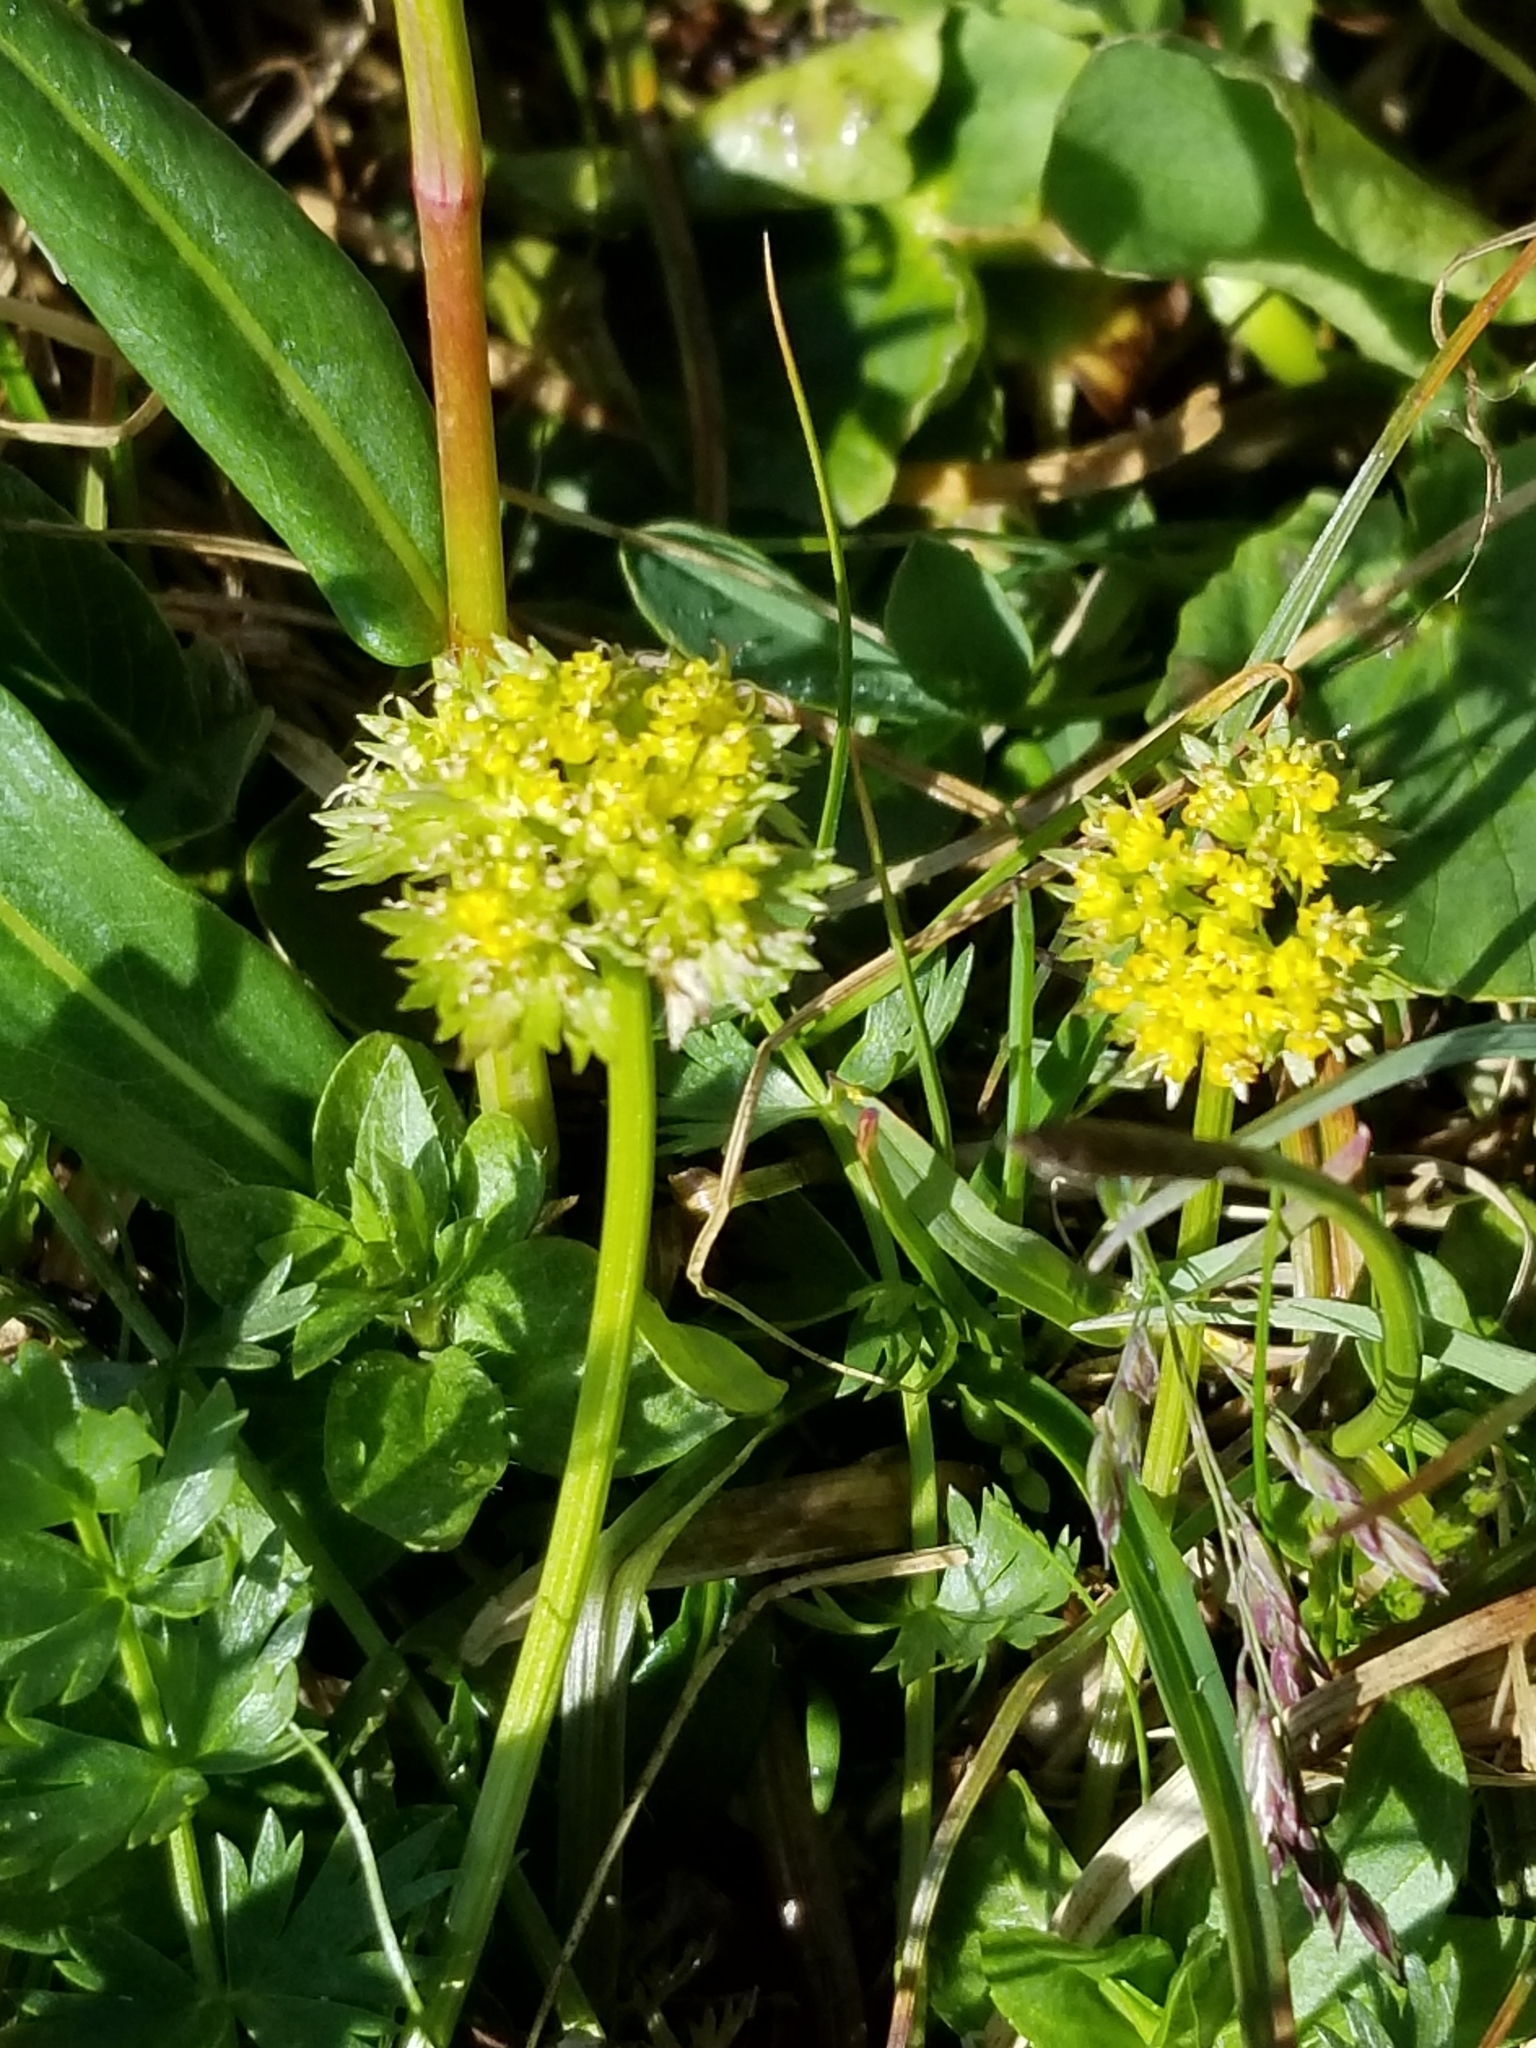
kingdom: Plantae
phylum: Tracheophyta
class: Magnoliopsida
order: Apiales
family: Apiaceae
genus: Cymopterus
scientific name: Cymopterus lemmonii
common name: Lemmon's spring-parsley
